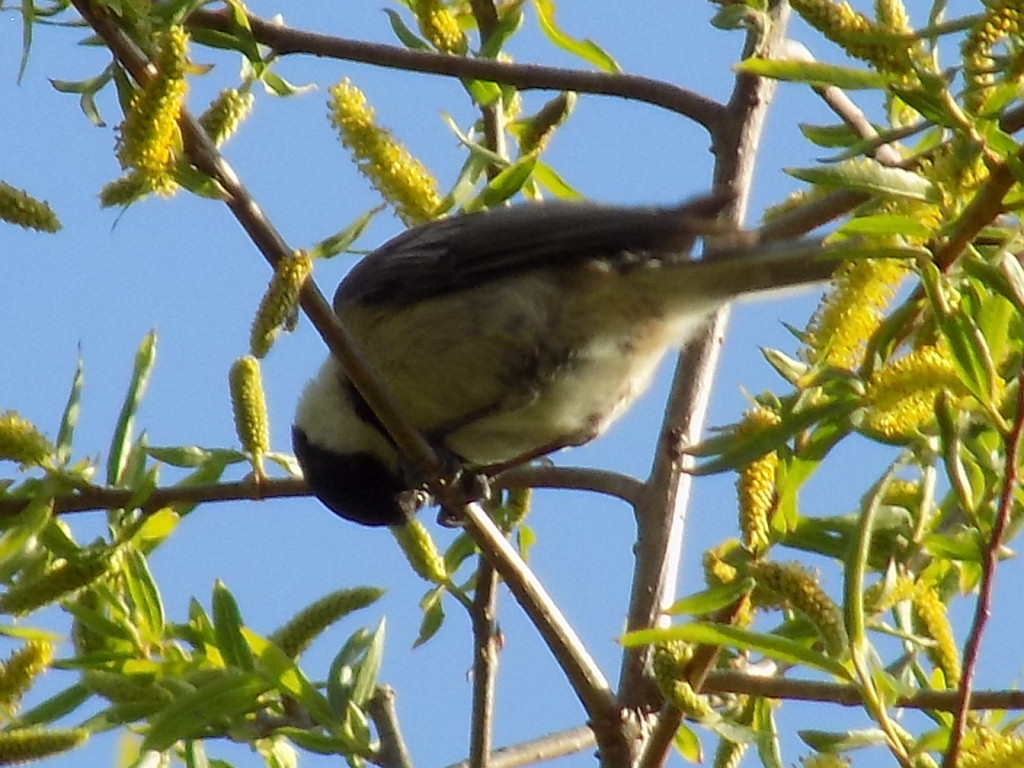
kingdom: Animalia
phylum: Chordata
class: Aves
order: Passeriformes
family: Paridae
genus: Poecile
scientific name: Poecile atricapillus
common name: Black-capped chickadee
